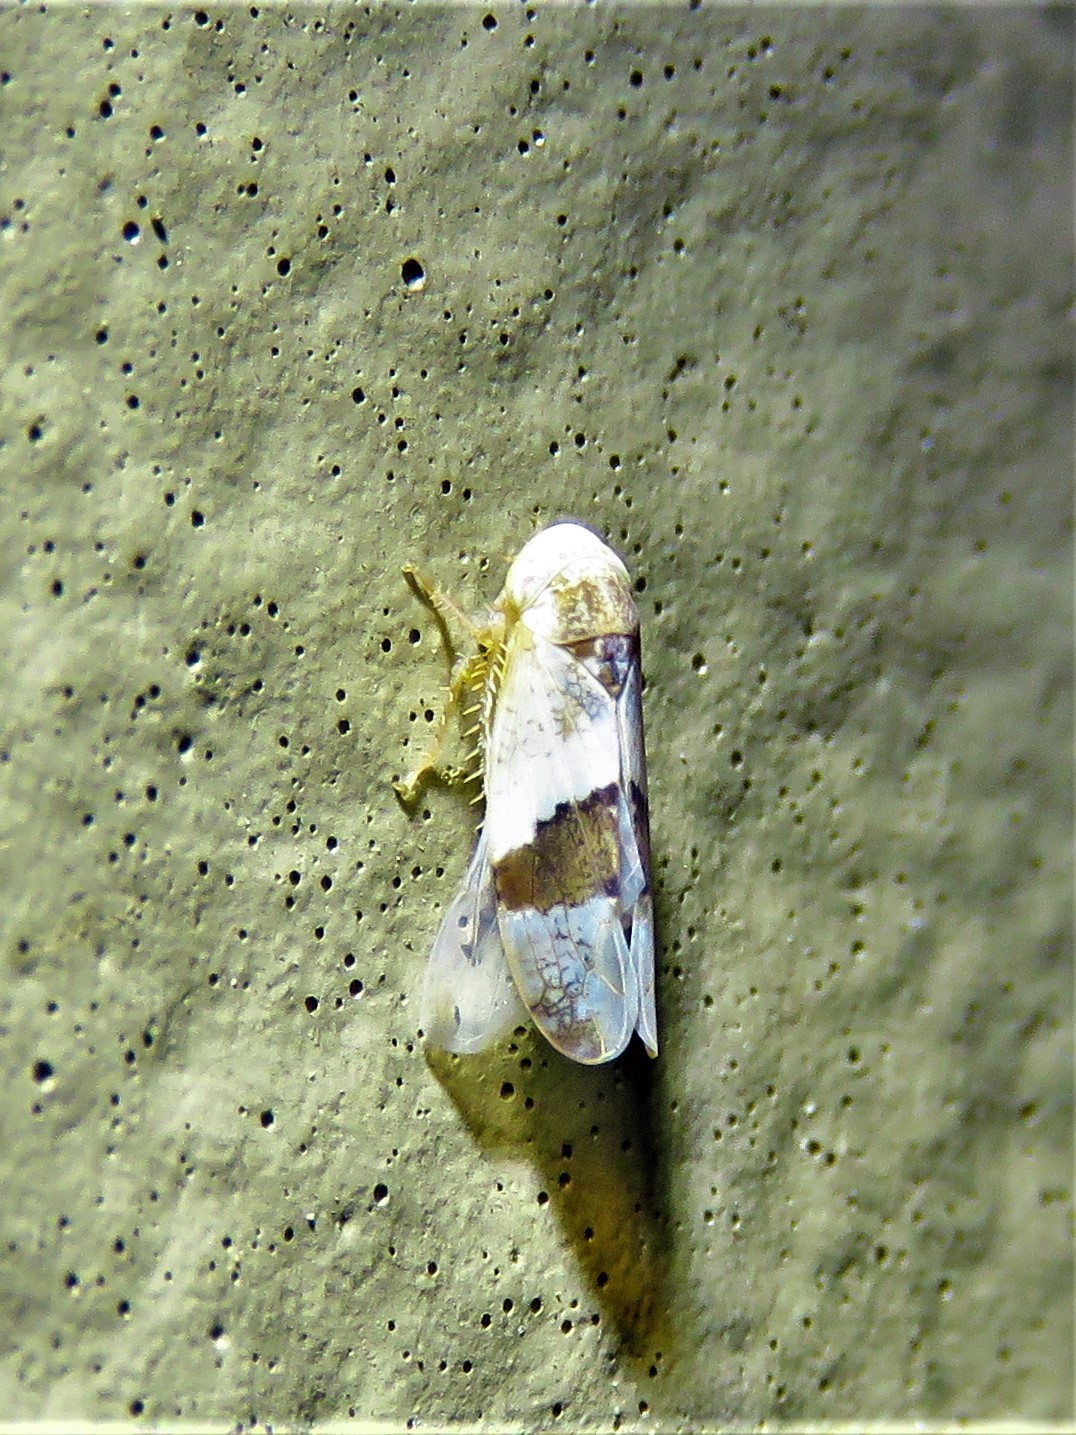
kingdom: Animalia
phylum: Arthropoda
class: Insecta
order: Hemiptera
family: Cicadellidae
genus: Norvellina
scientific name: Norvellina seminuda
